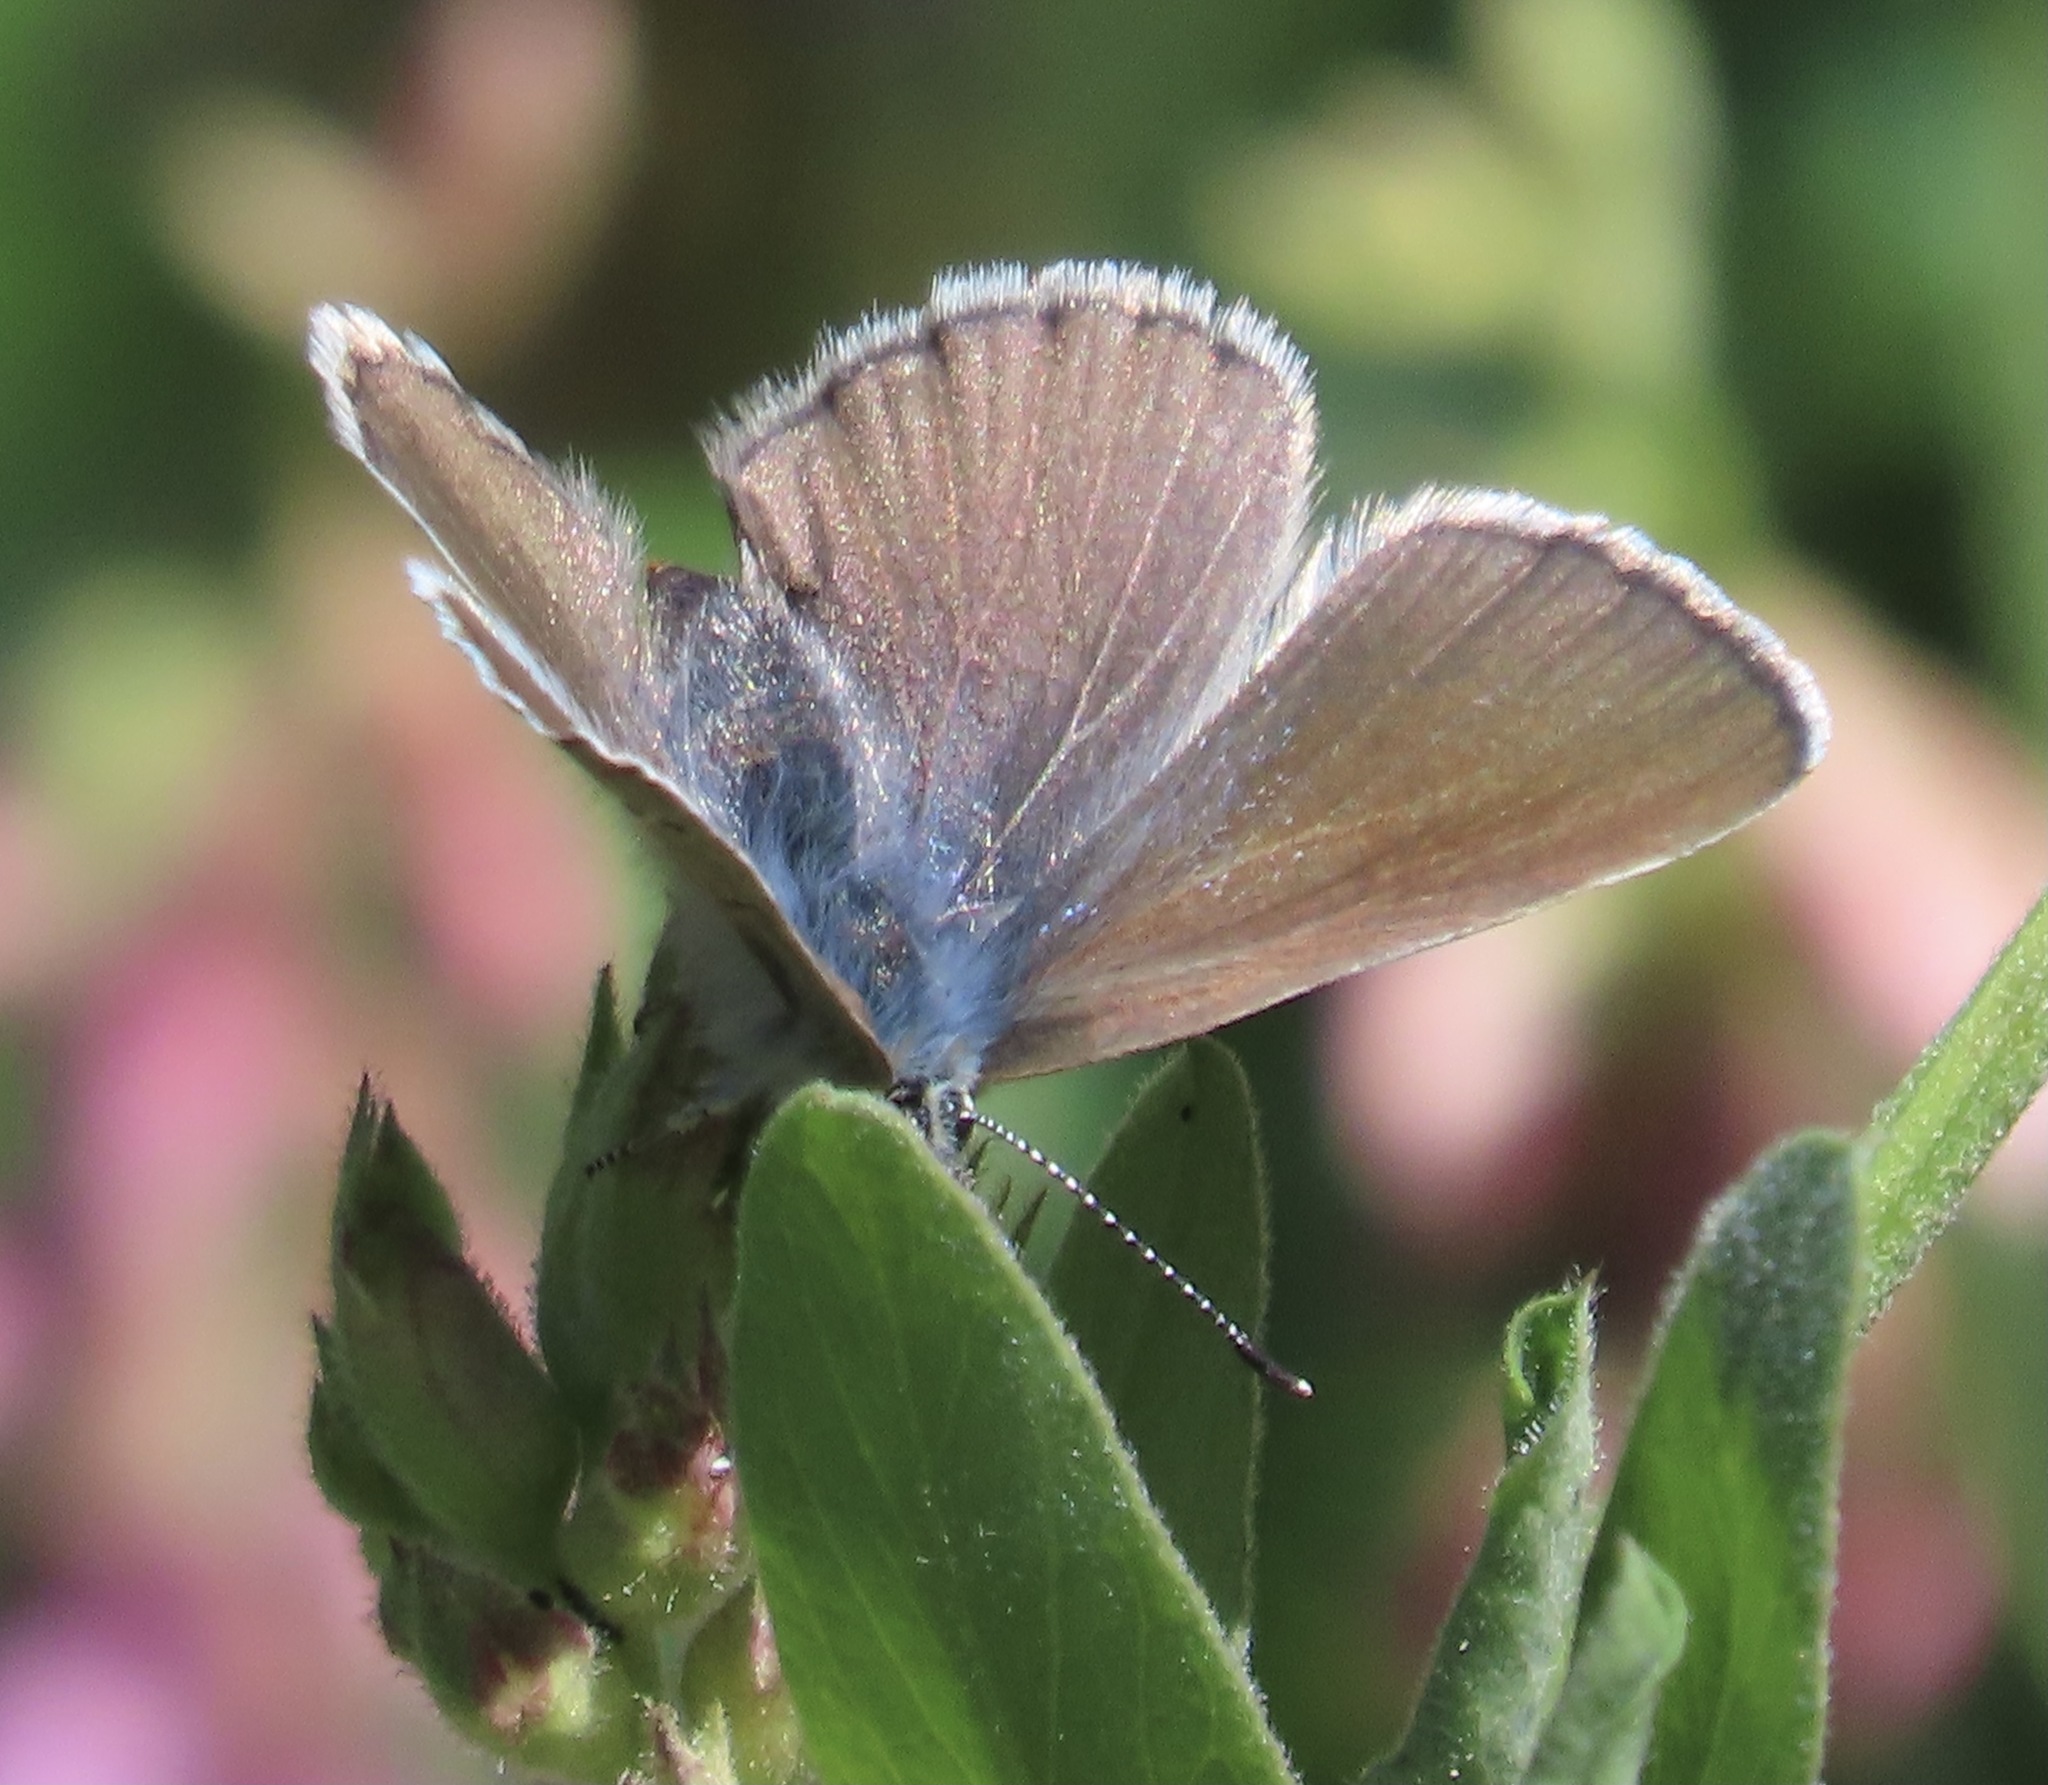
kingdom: Animalia
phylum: Arthropoda
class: Insecta
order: Lepidoptera
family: Lycaenidae
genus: Glaucopsyche
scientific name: Glaucopsyche lygdamus
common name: Silvery blue
